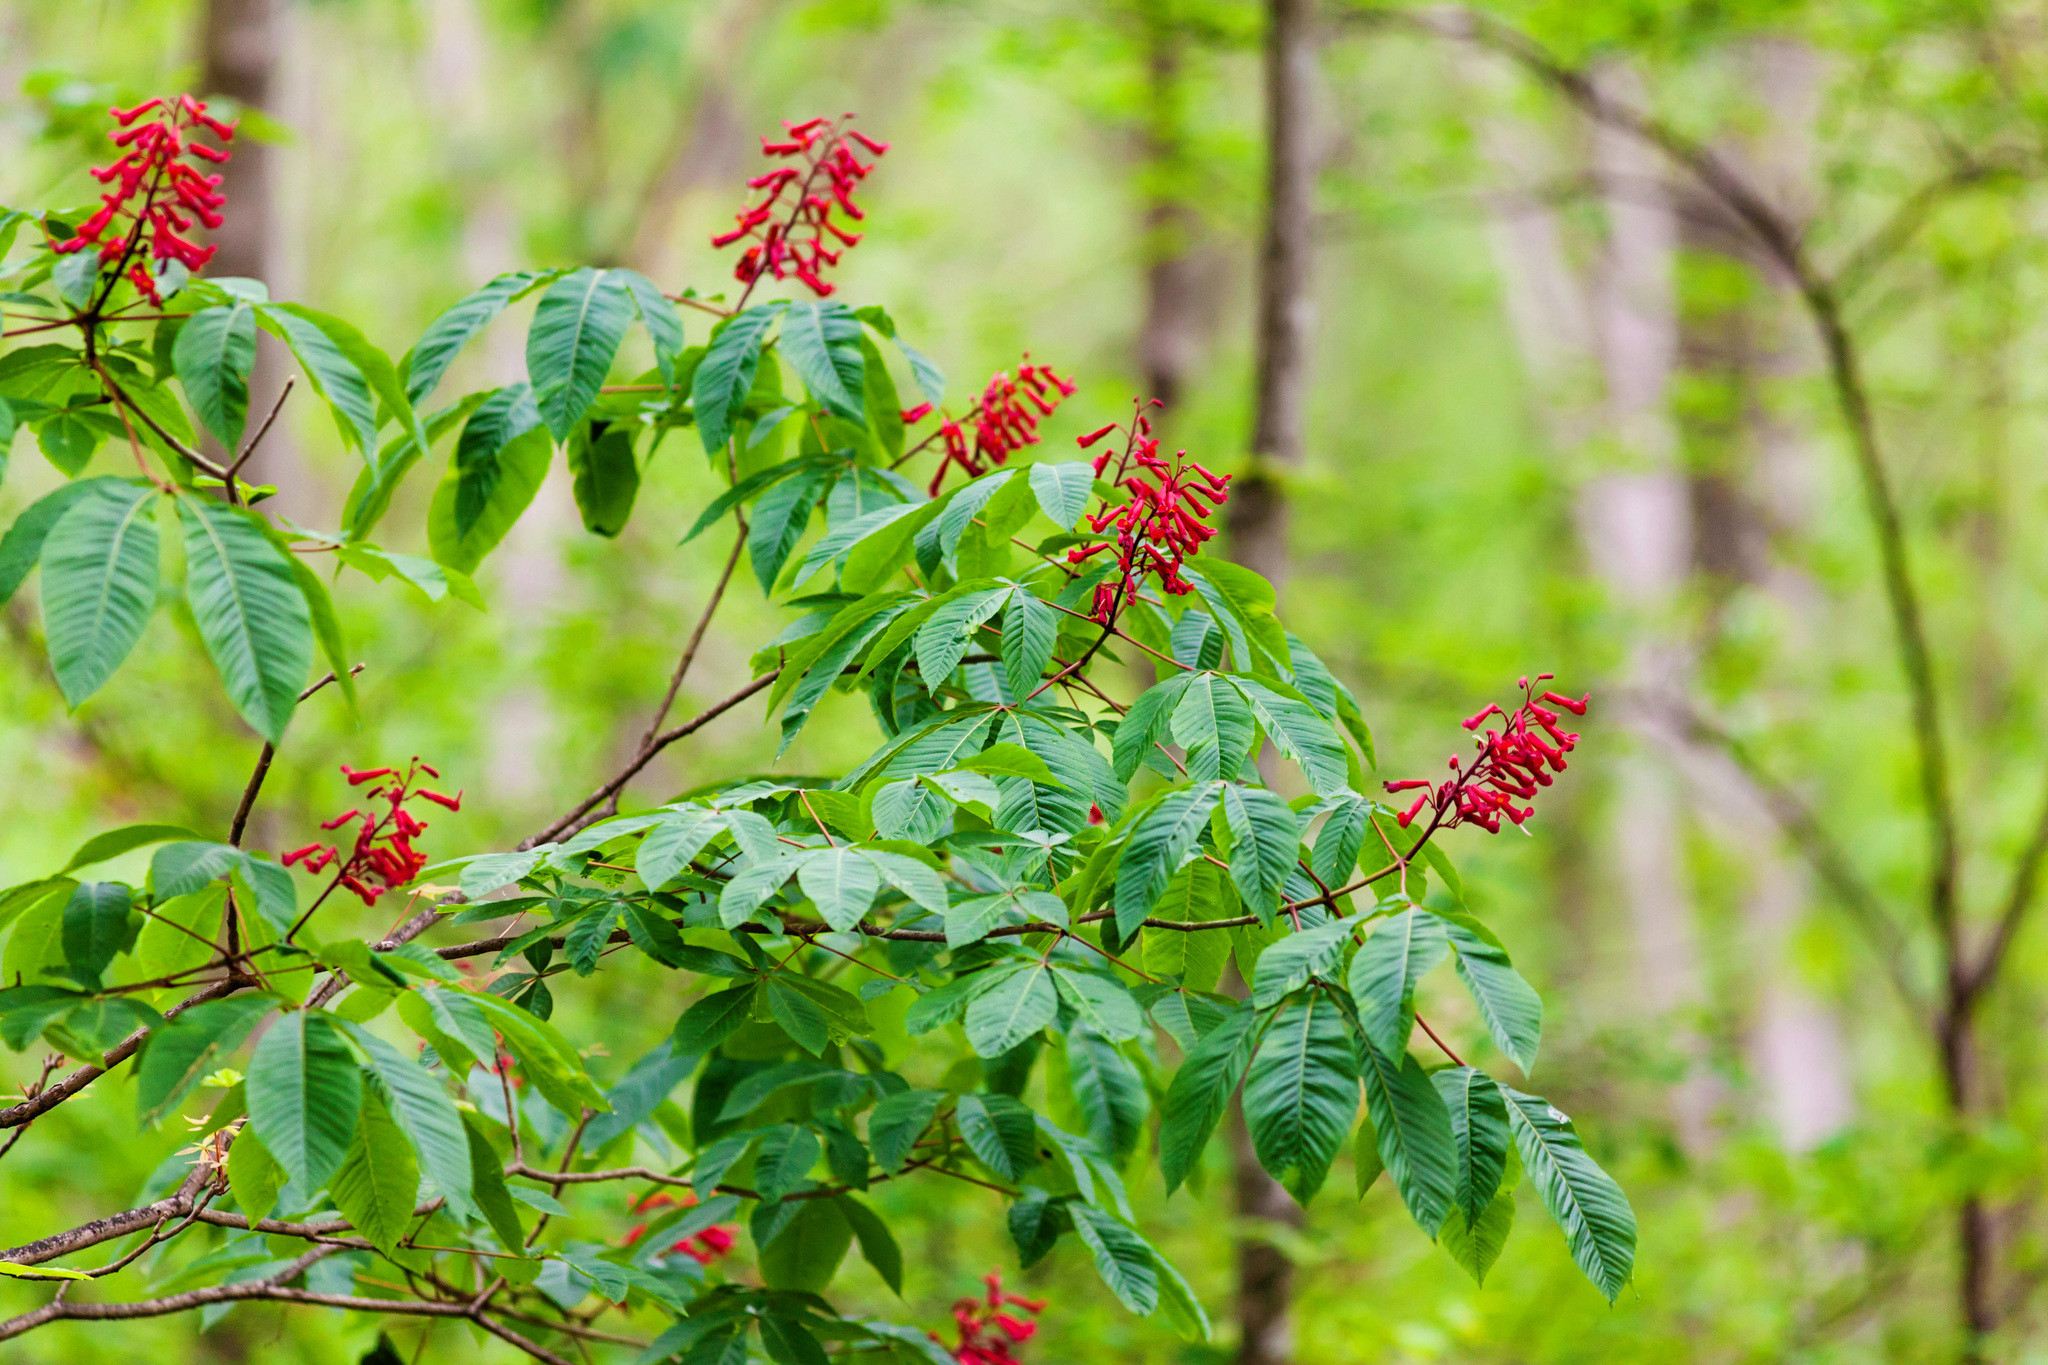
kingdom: Plantae
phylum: Tracheophyta
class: Magnoliopsida
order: Sapindales
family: Sapindaceae
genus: Aesculus
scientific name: Aesculus pavia
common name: Red buckeye
